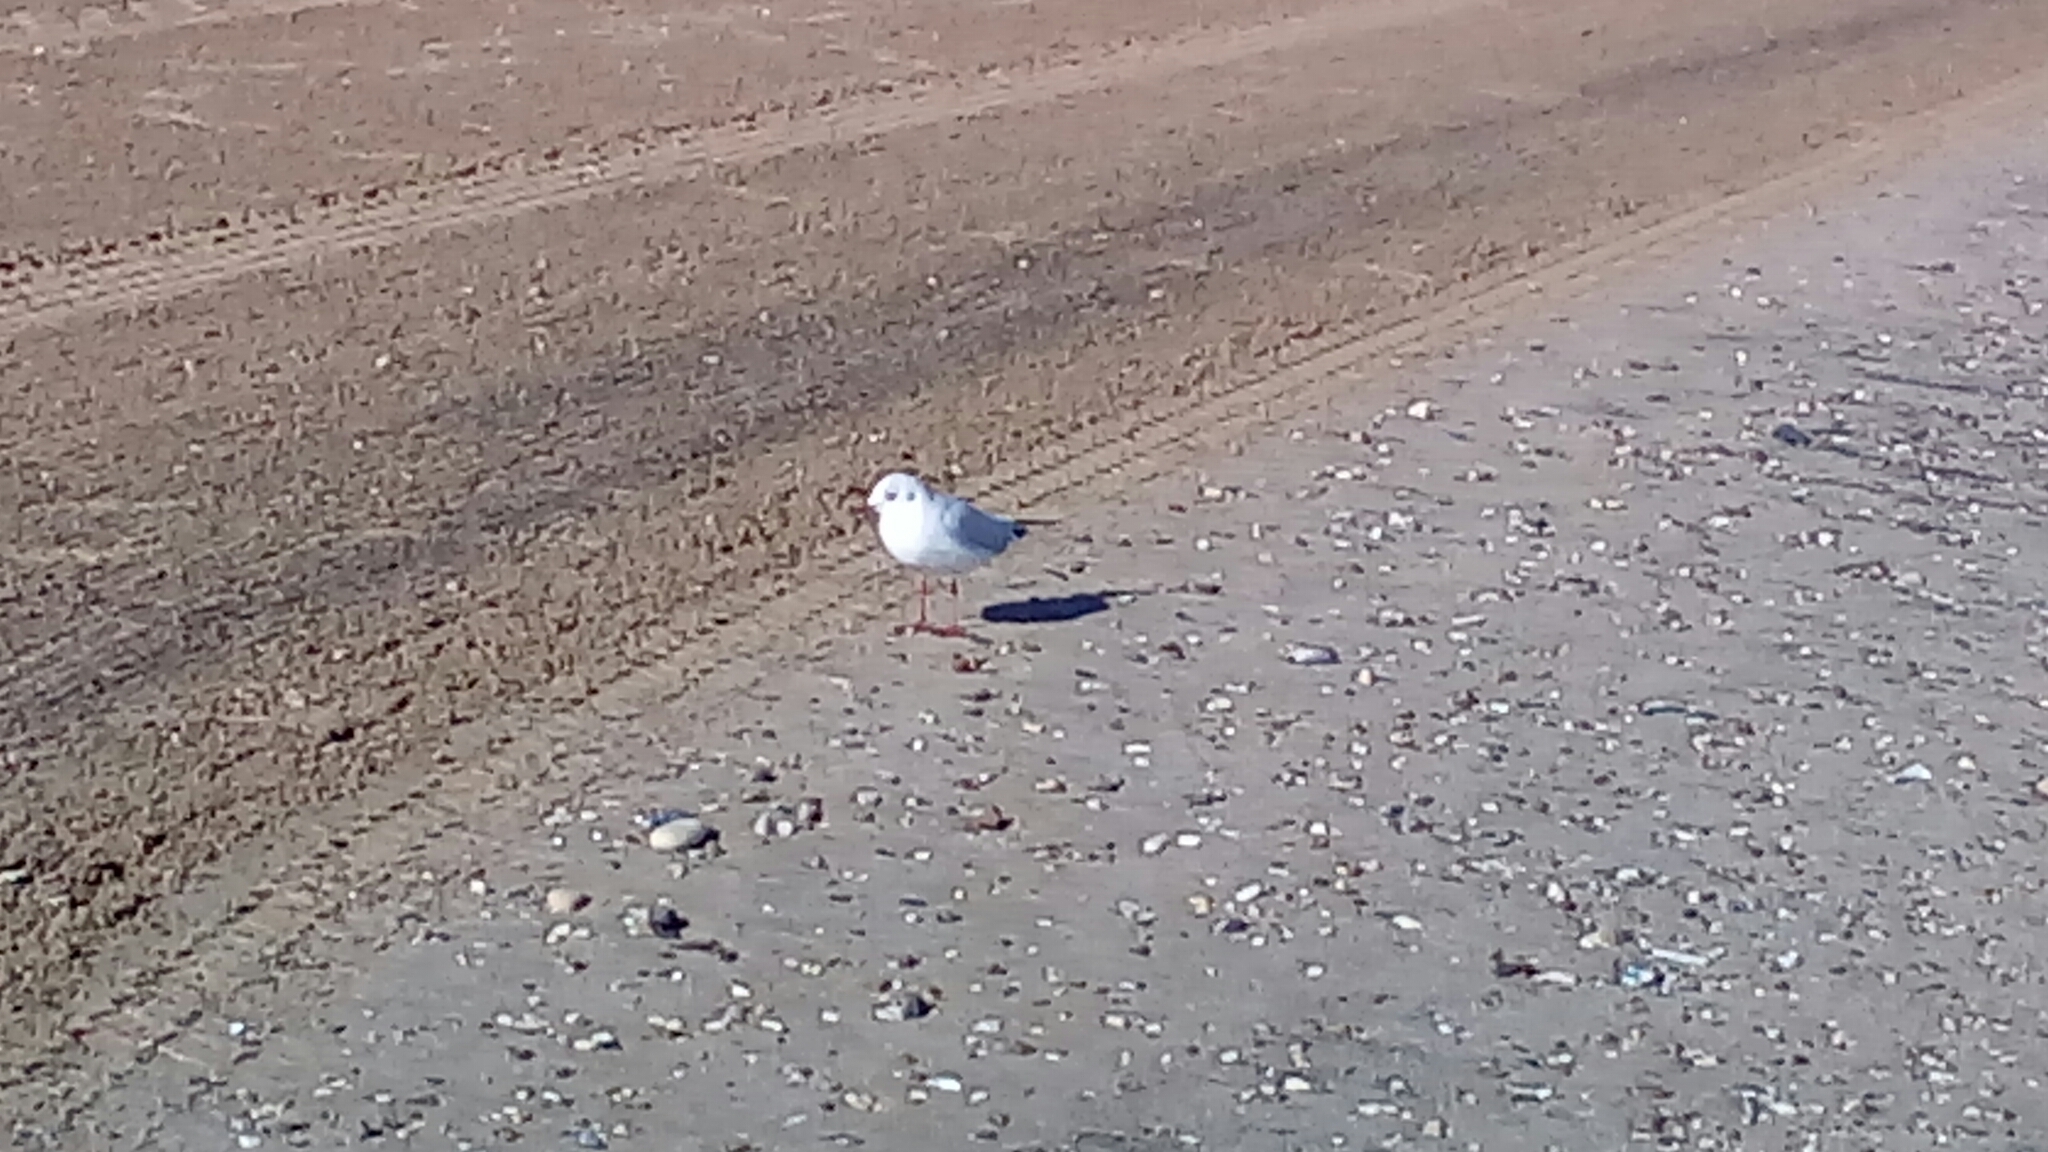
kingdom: Animalia
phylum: Chordata
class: Aves
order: Charadriiformes
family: Laridae
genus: Chroicocephalus
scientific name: Chroicocephalus ridibundus
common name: Black-headed gull
